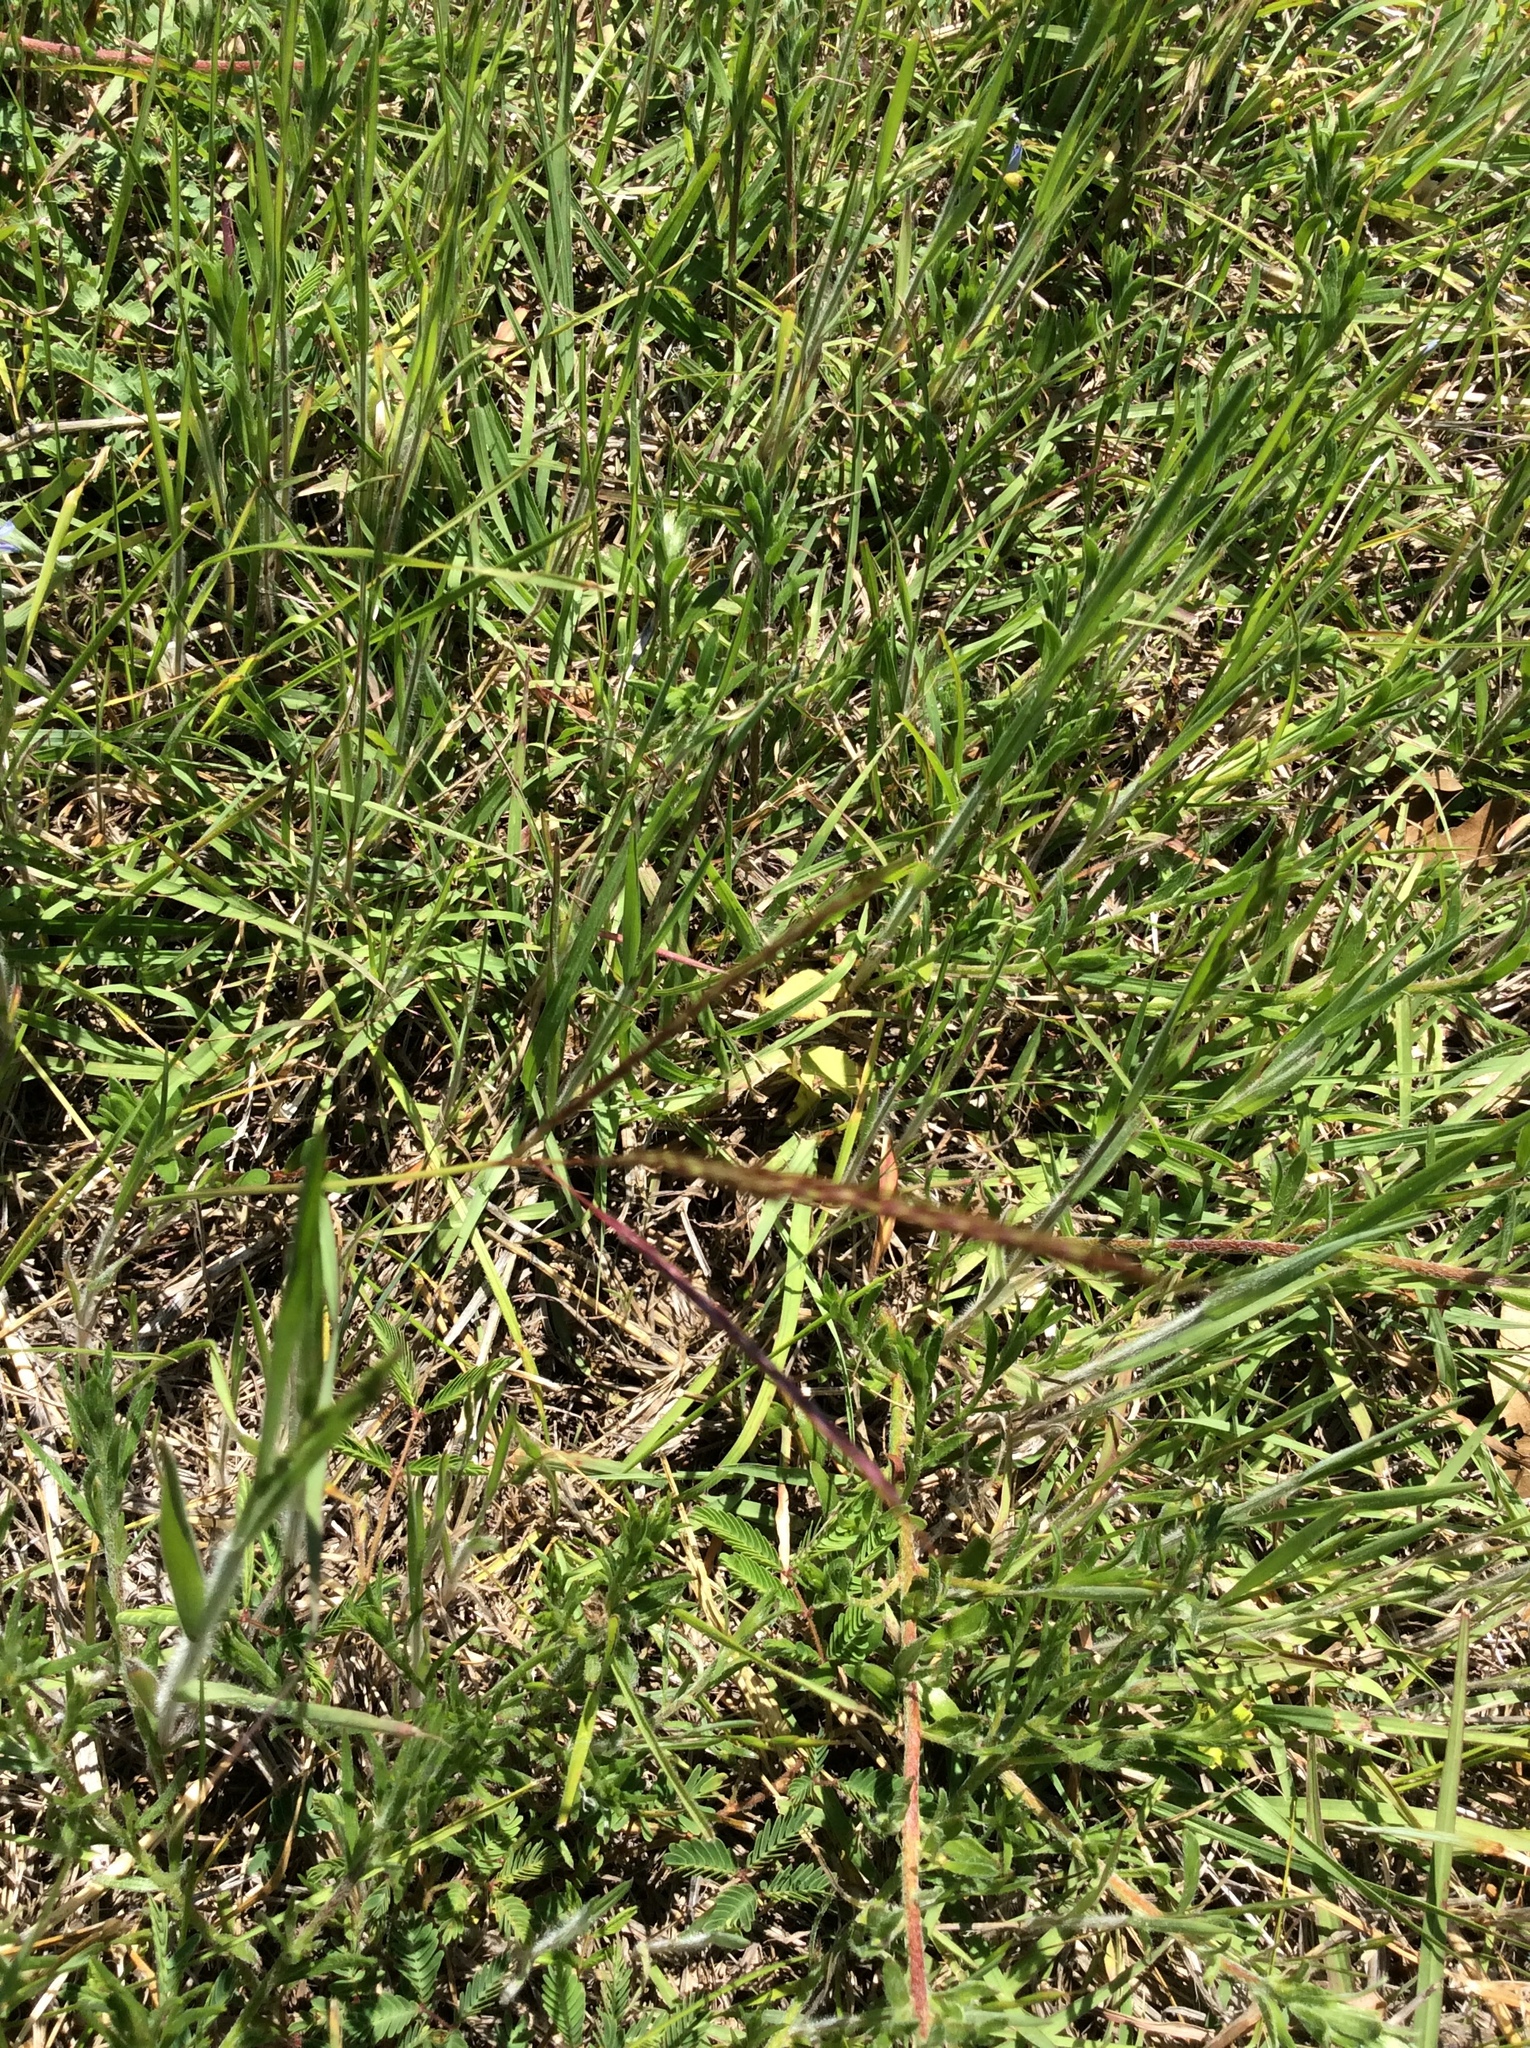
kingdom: Plantae
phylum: Tracheophyta
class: Liliopsida
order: Poales
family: Poaceae
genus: Bothriochloa
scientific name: Bothriochloa ischaemum
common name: Yellow bluestem
